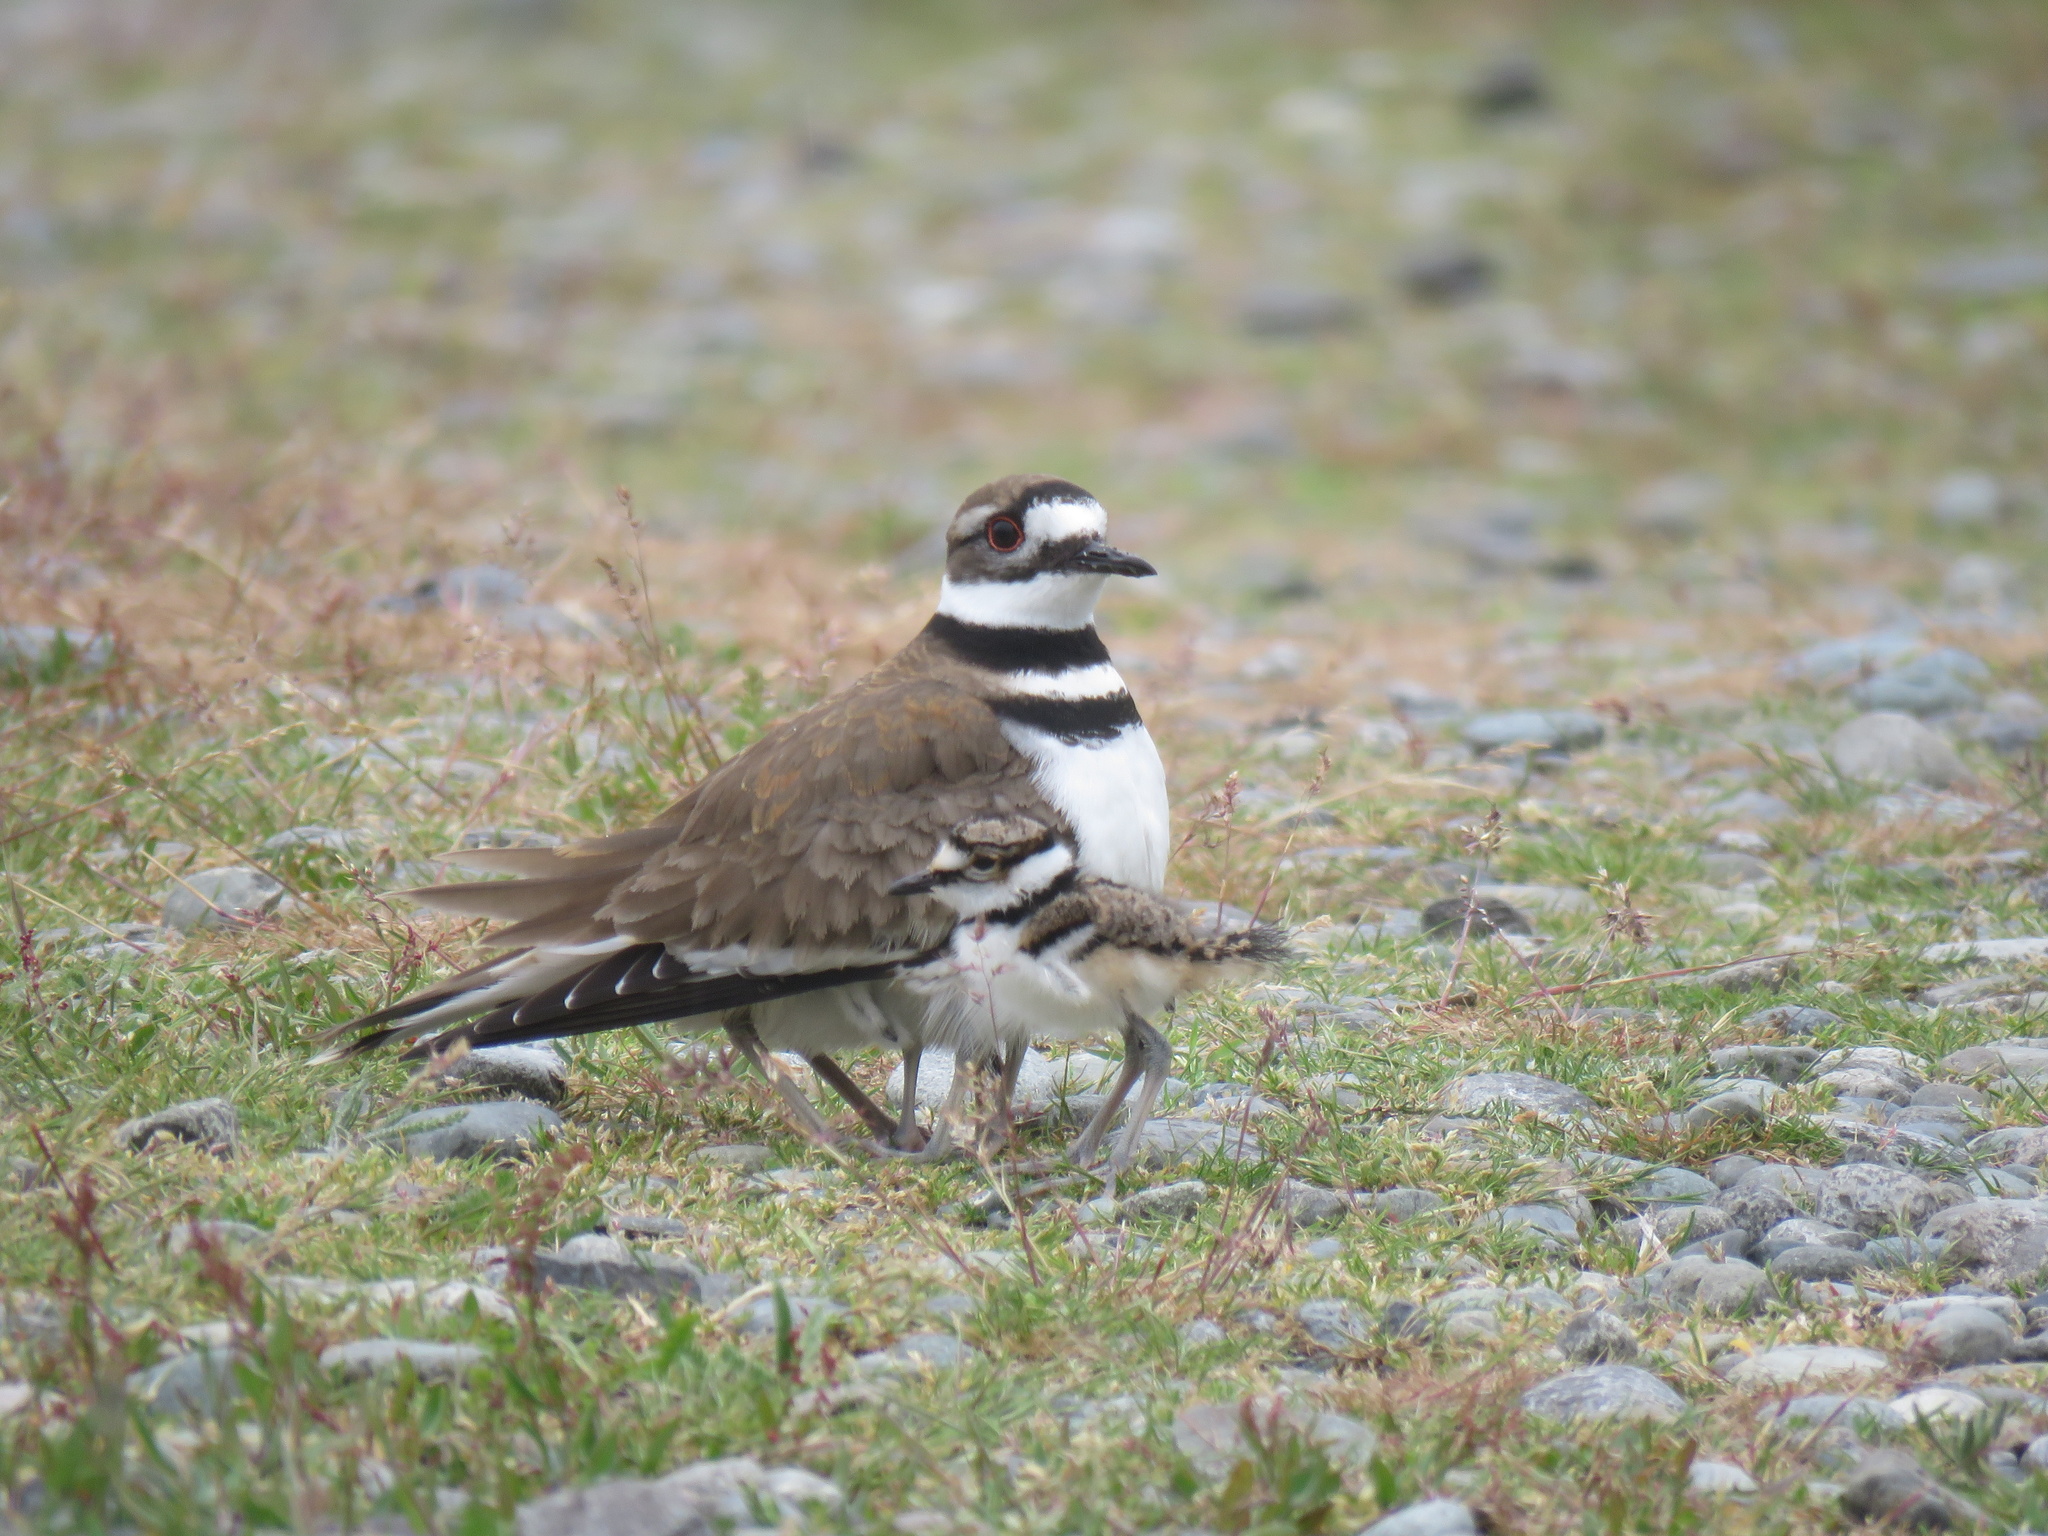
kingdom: Animalia
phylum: Chordata
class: Aves
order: Charadriiformes
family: Charadriidae
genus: Charadrius
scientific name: Charadrius vociferus
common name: Killdeer
